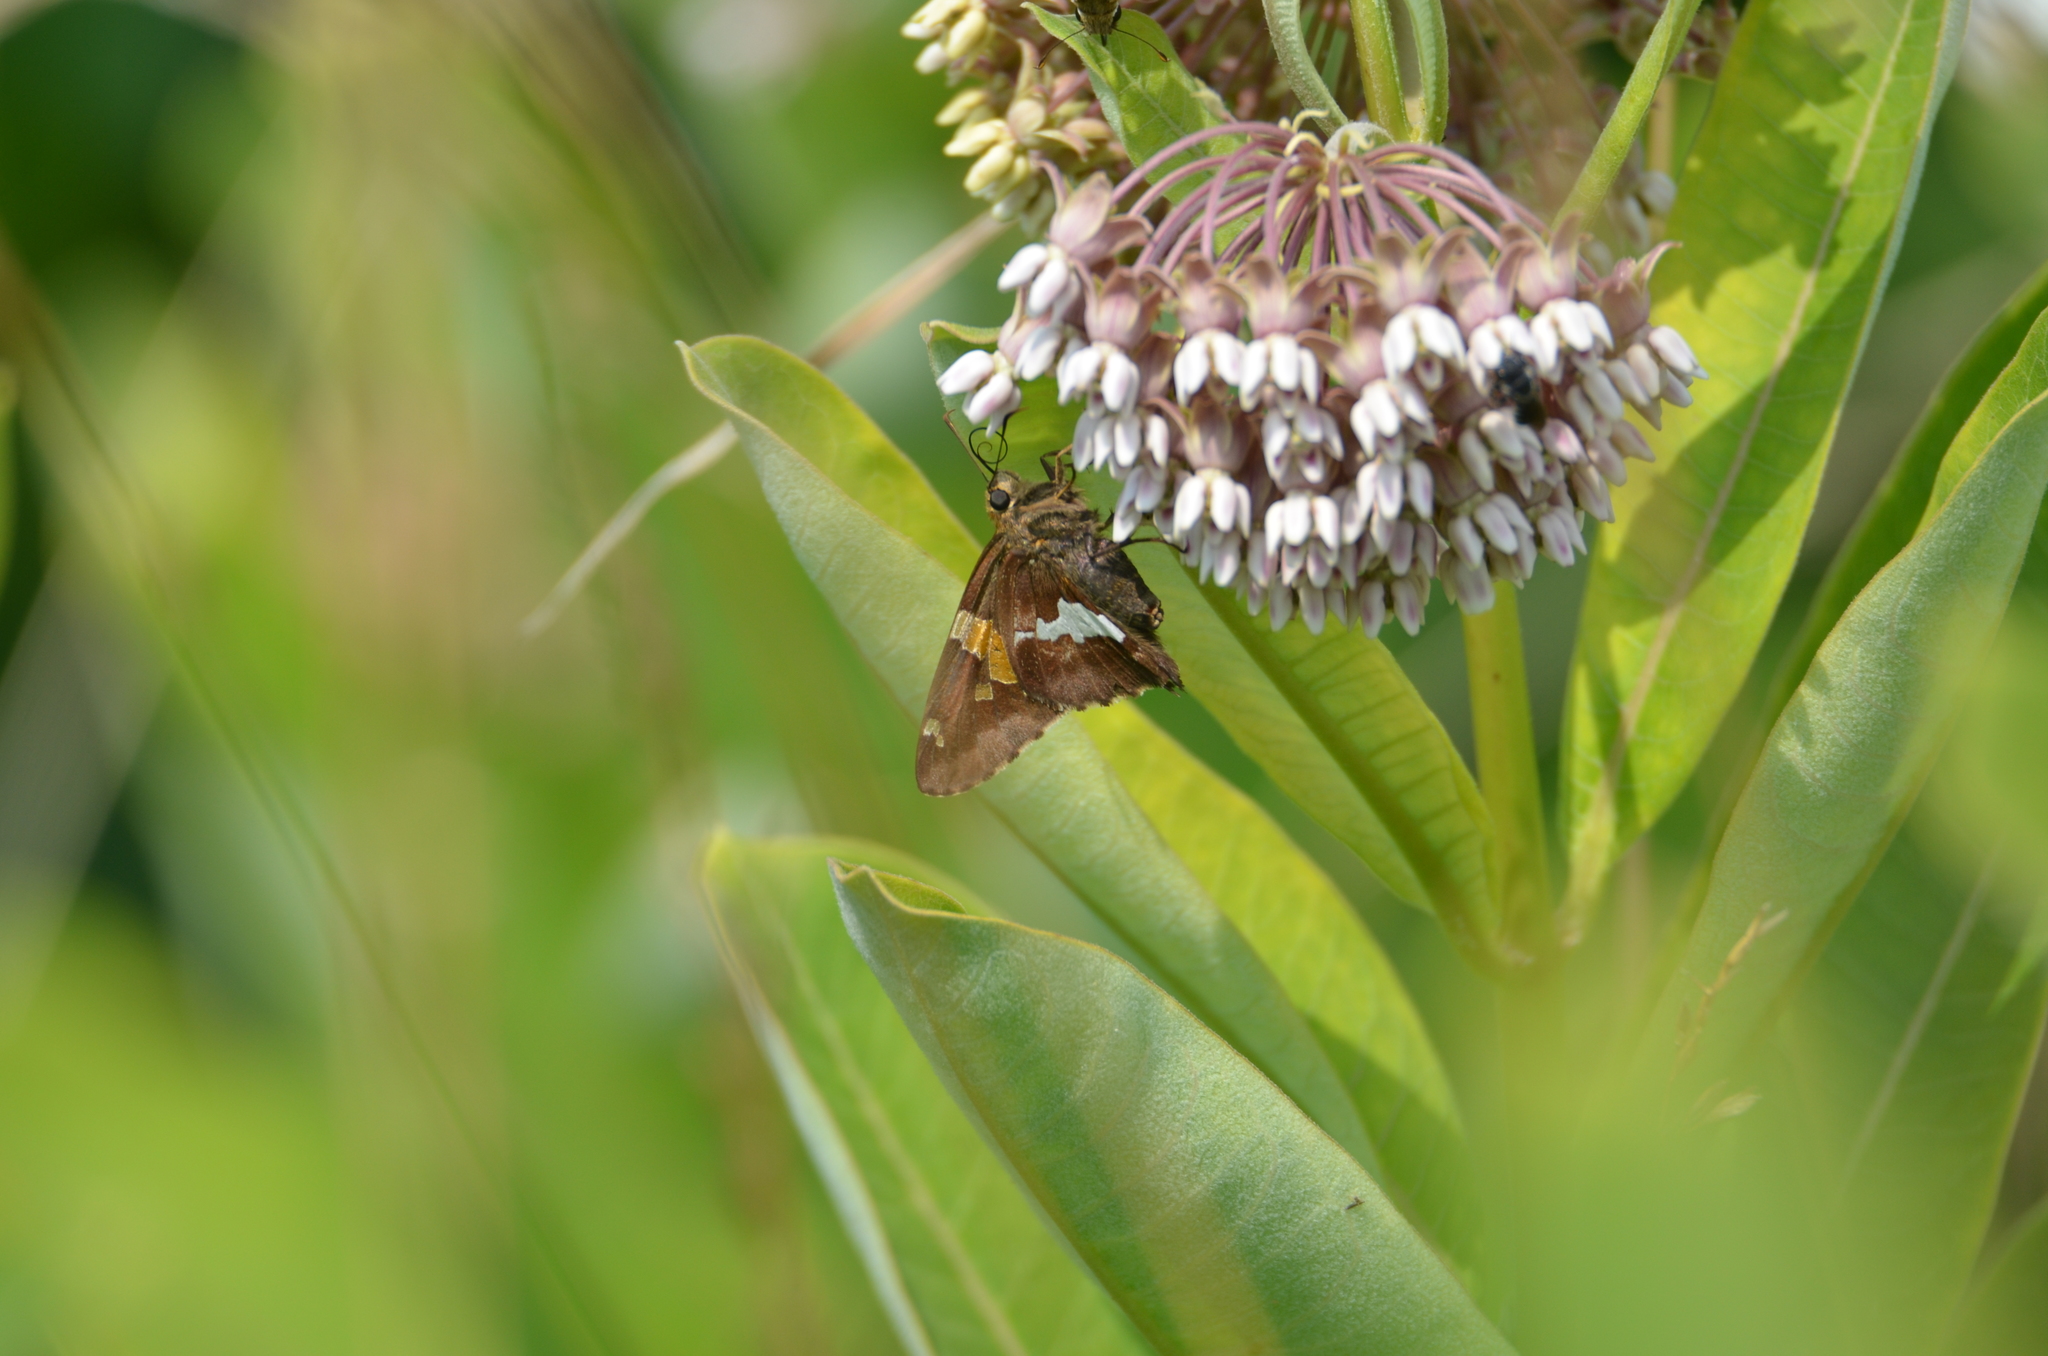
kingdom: Animalia
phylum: Arthropoda
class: Insecta
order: Lepidoptera
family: Hesperiidae
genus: Epargyreus
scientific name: Epargyreus clarus
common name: Silver-spotted skipper
